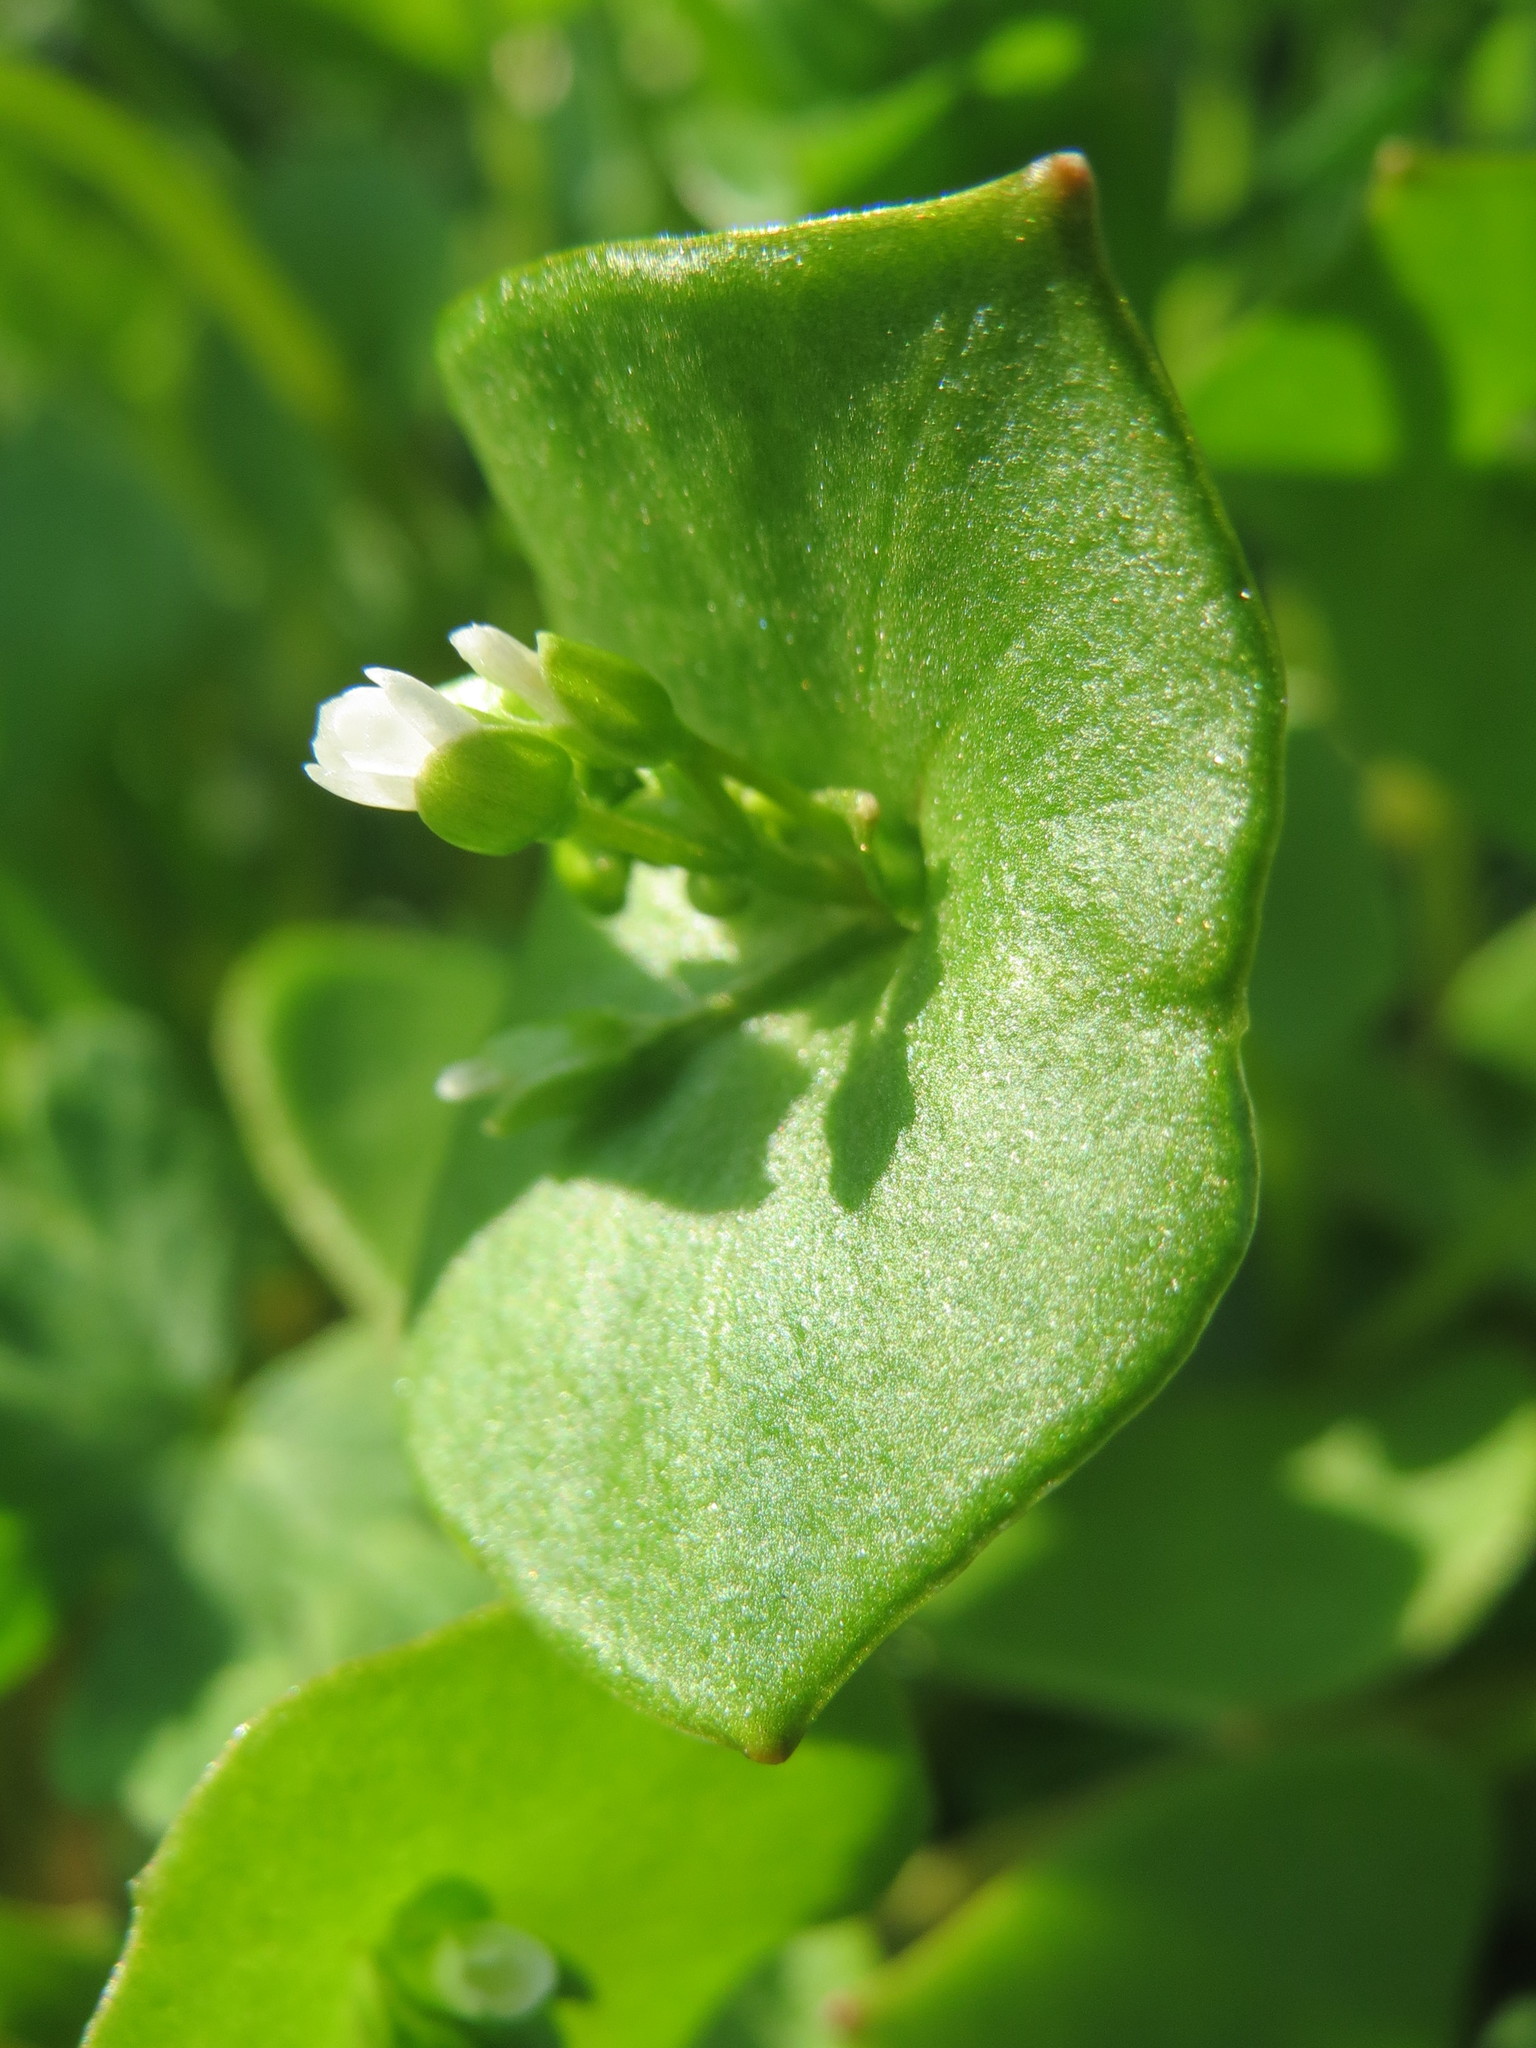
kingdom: Plantae
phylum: Tracheophyta
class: Magnoliopsida
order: Caryophyllales
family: Montiaceae
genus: Claytonia
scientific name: Claytonia perfoliata
